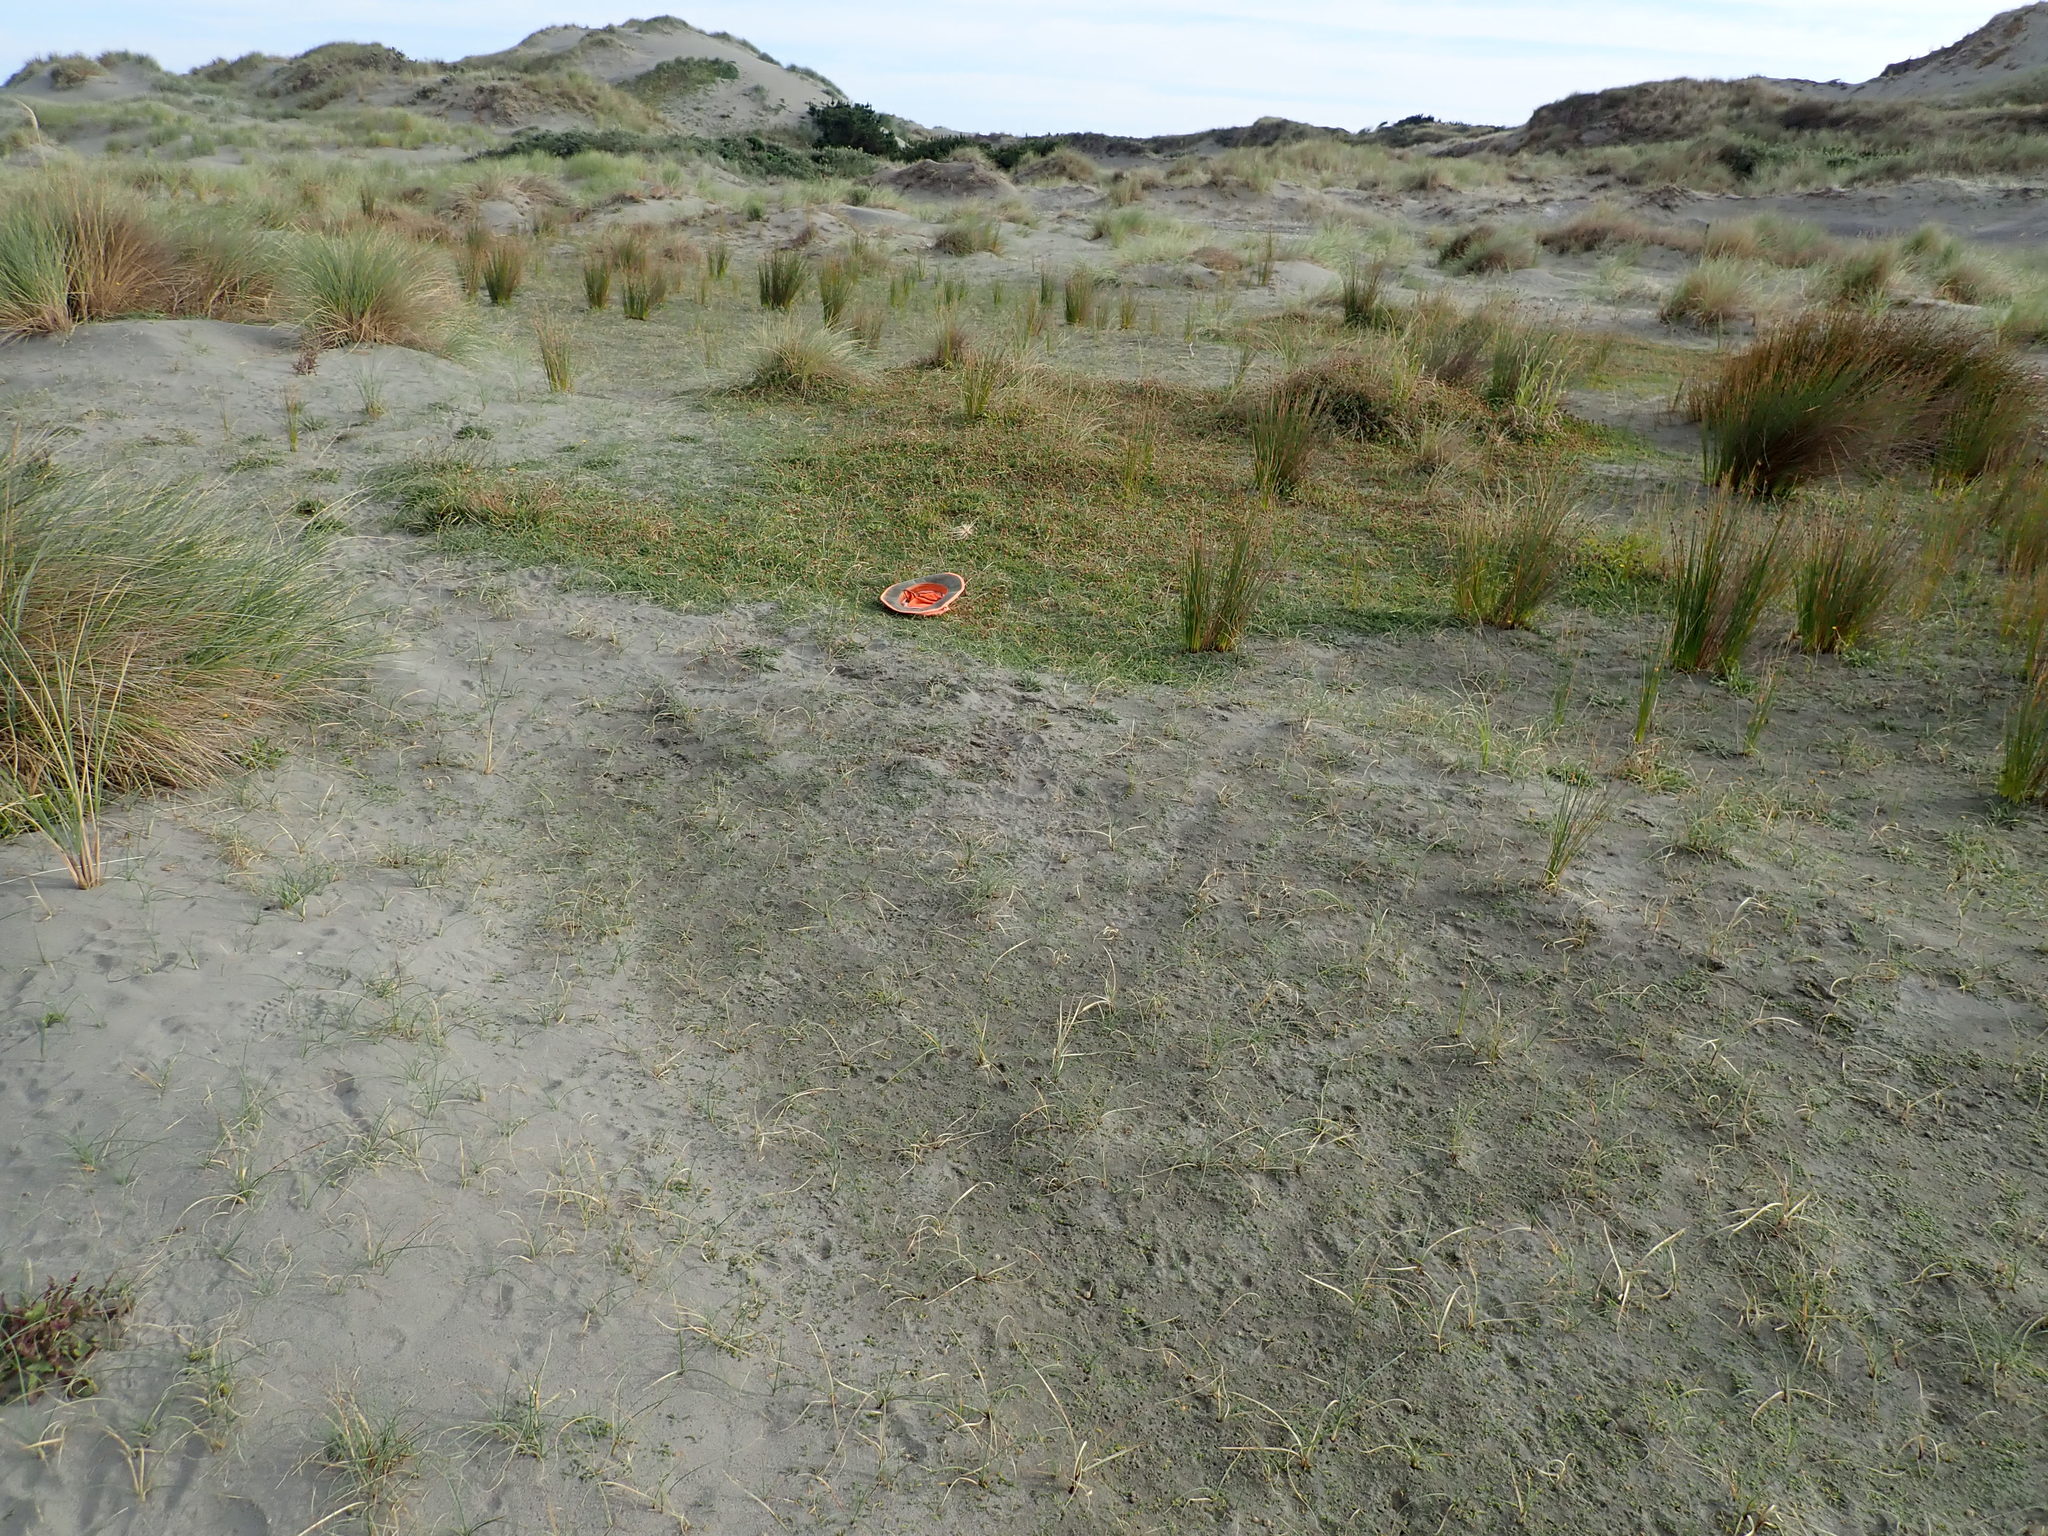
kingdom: Plantae
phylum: Tracheophyta
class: Magnoliopsida
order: Fabales
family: Fabaceae
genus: Trifolium
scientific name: Trifolium fragiferum
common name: Strawberry clover
